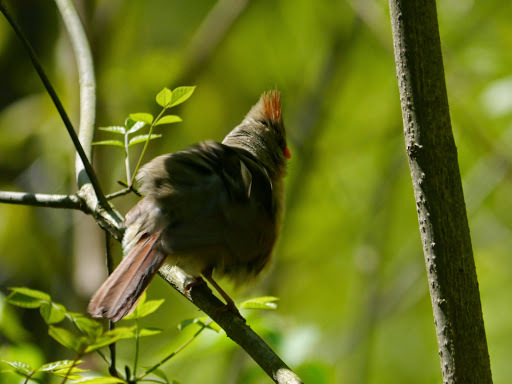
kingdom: Animalia
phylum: Chordata
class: Aves
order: Passeriformes
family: Cardinalidae
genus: Cardinalis
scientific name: Cardinalis cardinalis
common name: Northern cardinal
